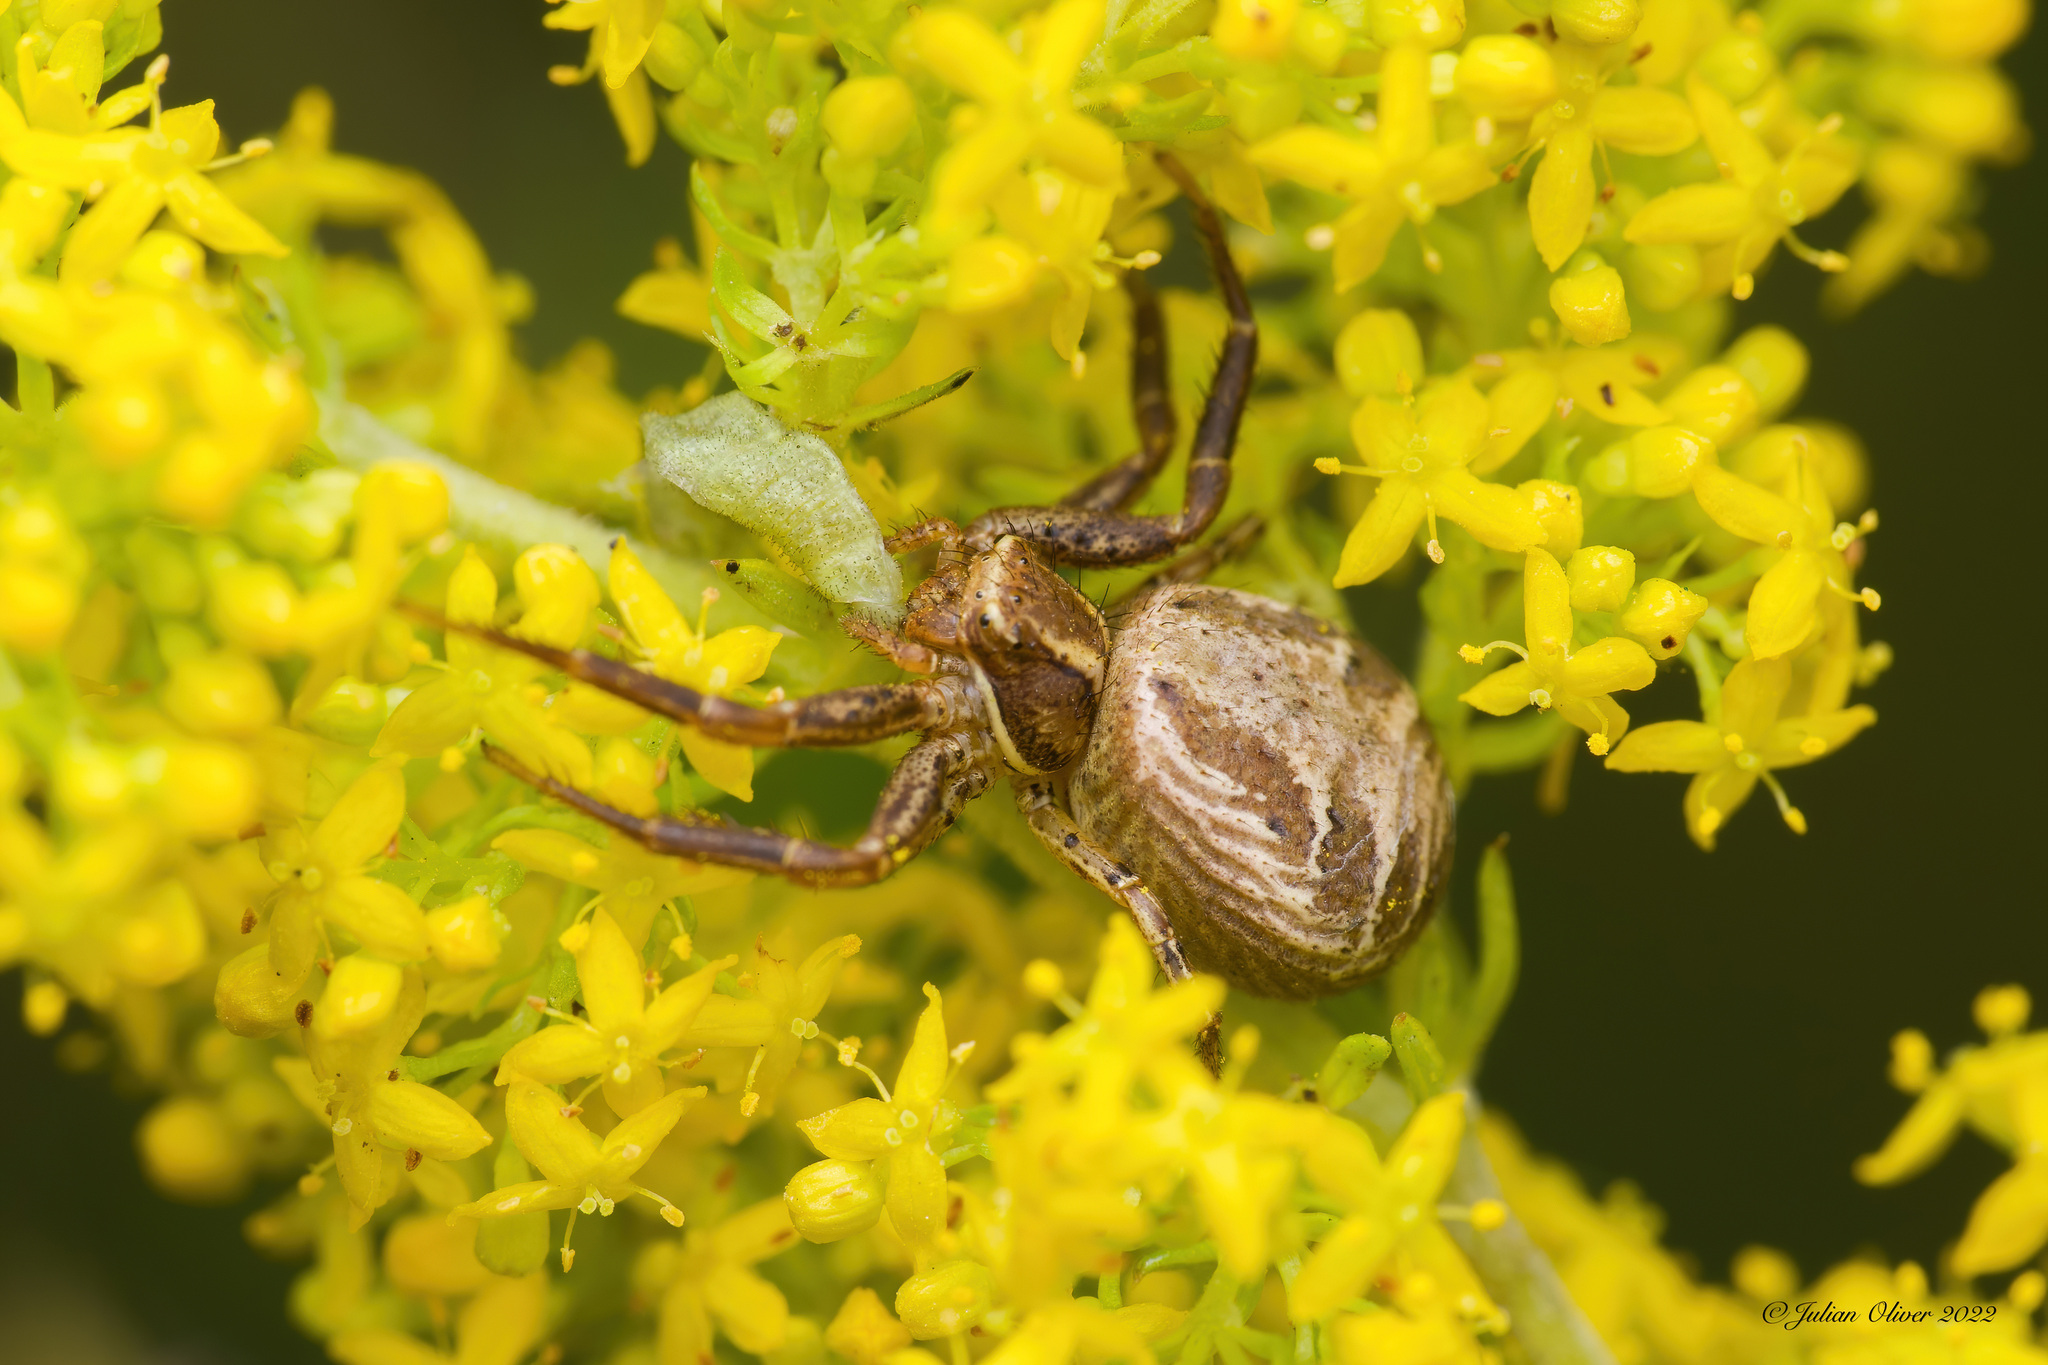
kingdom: Animalia
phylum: Arthropoda
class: Arachnida
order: Araneae
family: Thomisidae
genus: Xysticus
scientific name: Xysticus
